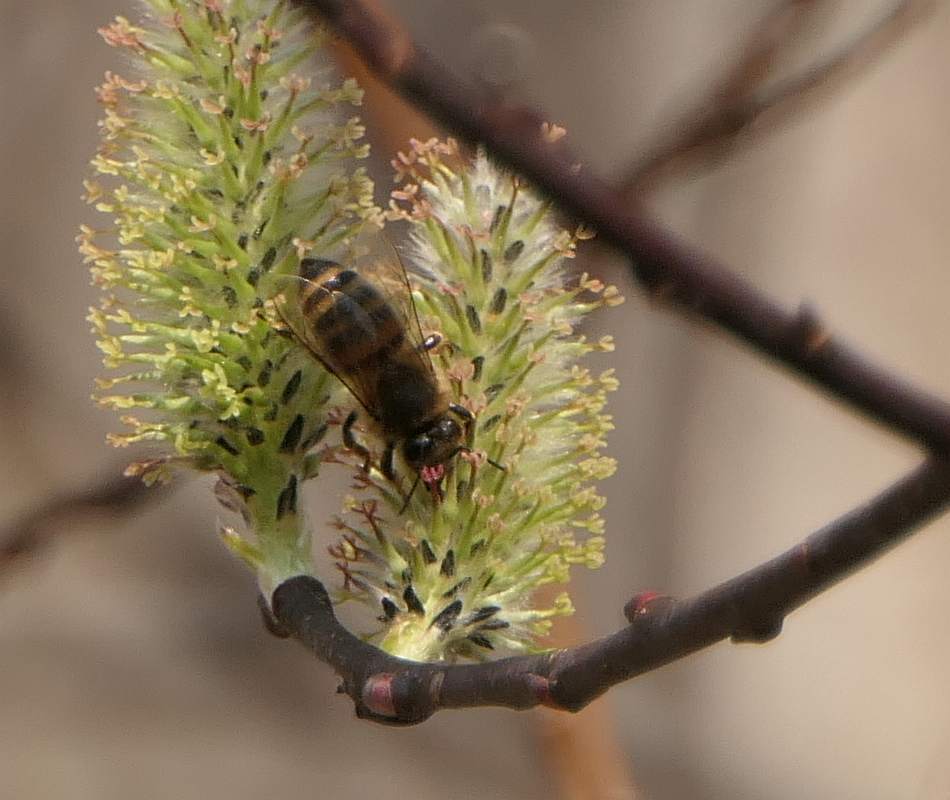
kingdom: Animalia
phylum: Arthropoda
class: Insecta
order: Hymenoptera
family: Apidae
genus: Apis
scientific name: Apis mellifera
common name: Honey bee
